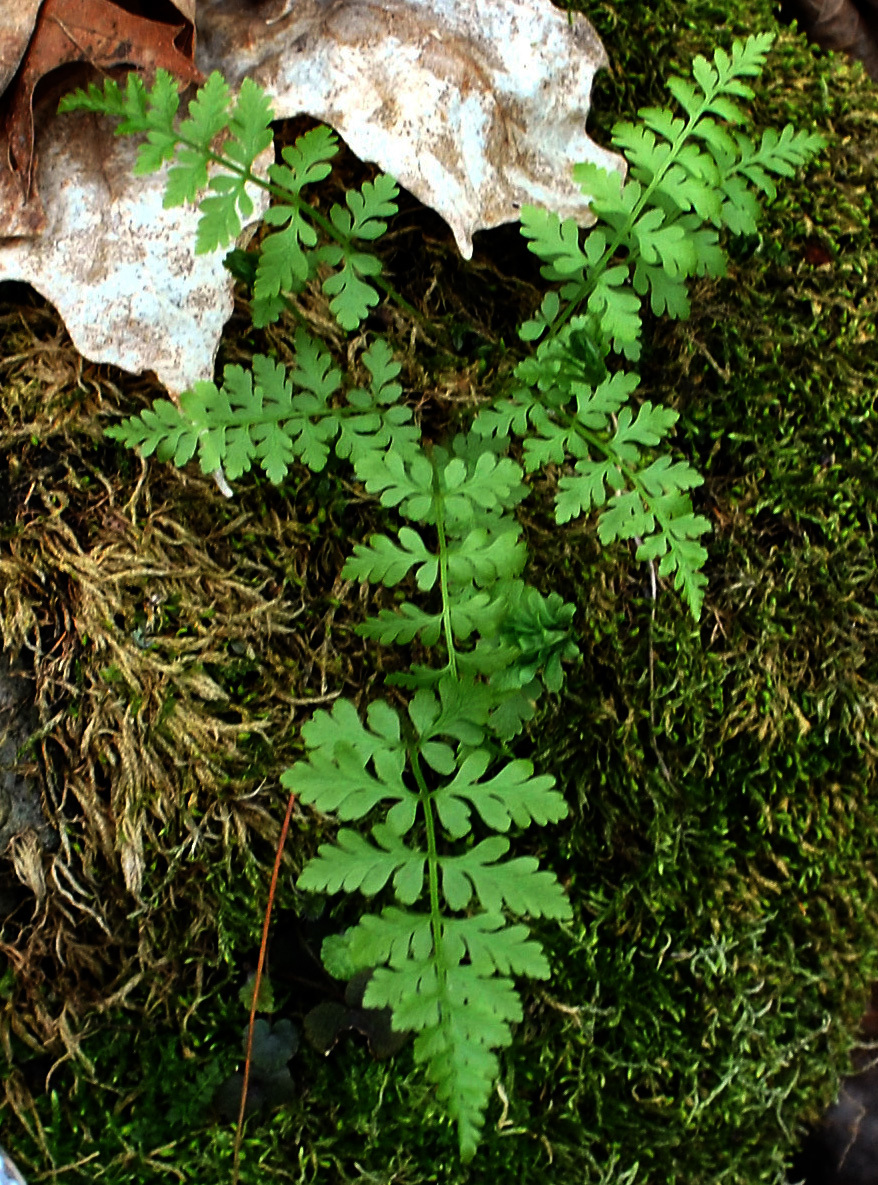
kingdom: Plantae
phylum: Tracheophyta
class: Polypodiopsida
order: Polypodiales
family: Cystopteridaceae
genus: Cystopteris
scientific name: Cystopteris fragilis
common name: Brittle bladder fern
